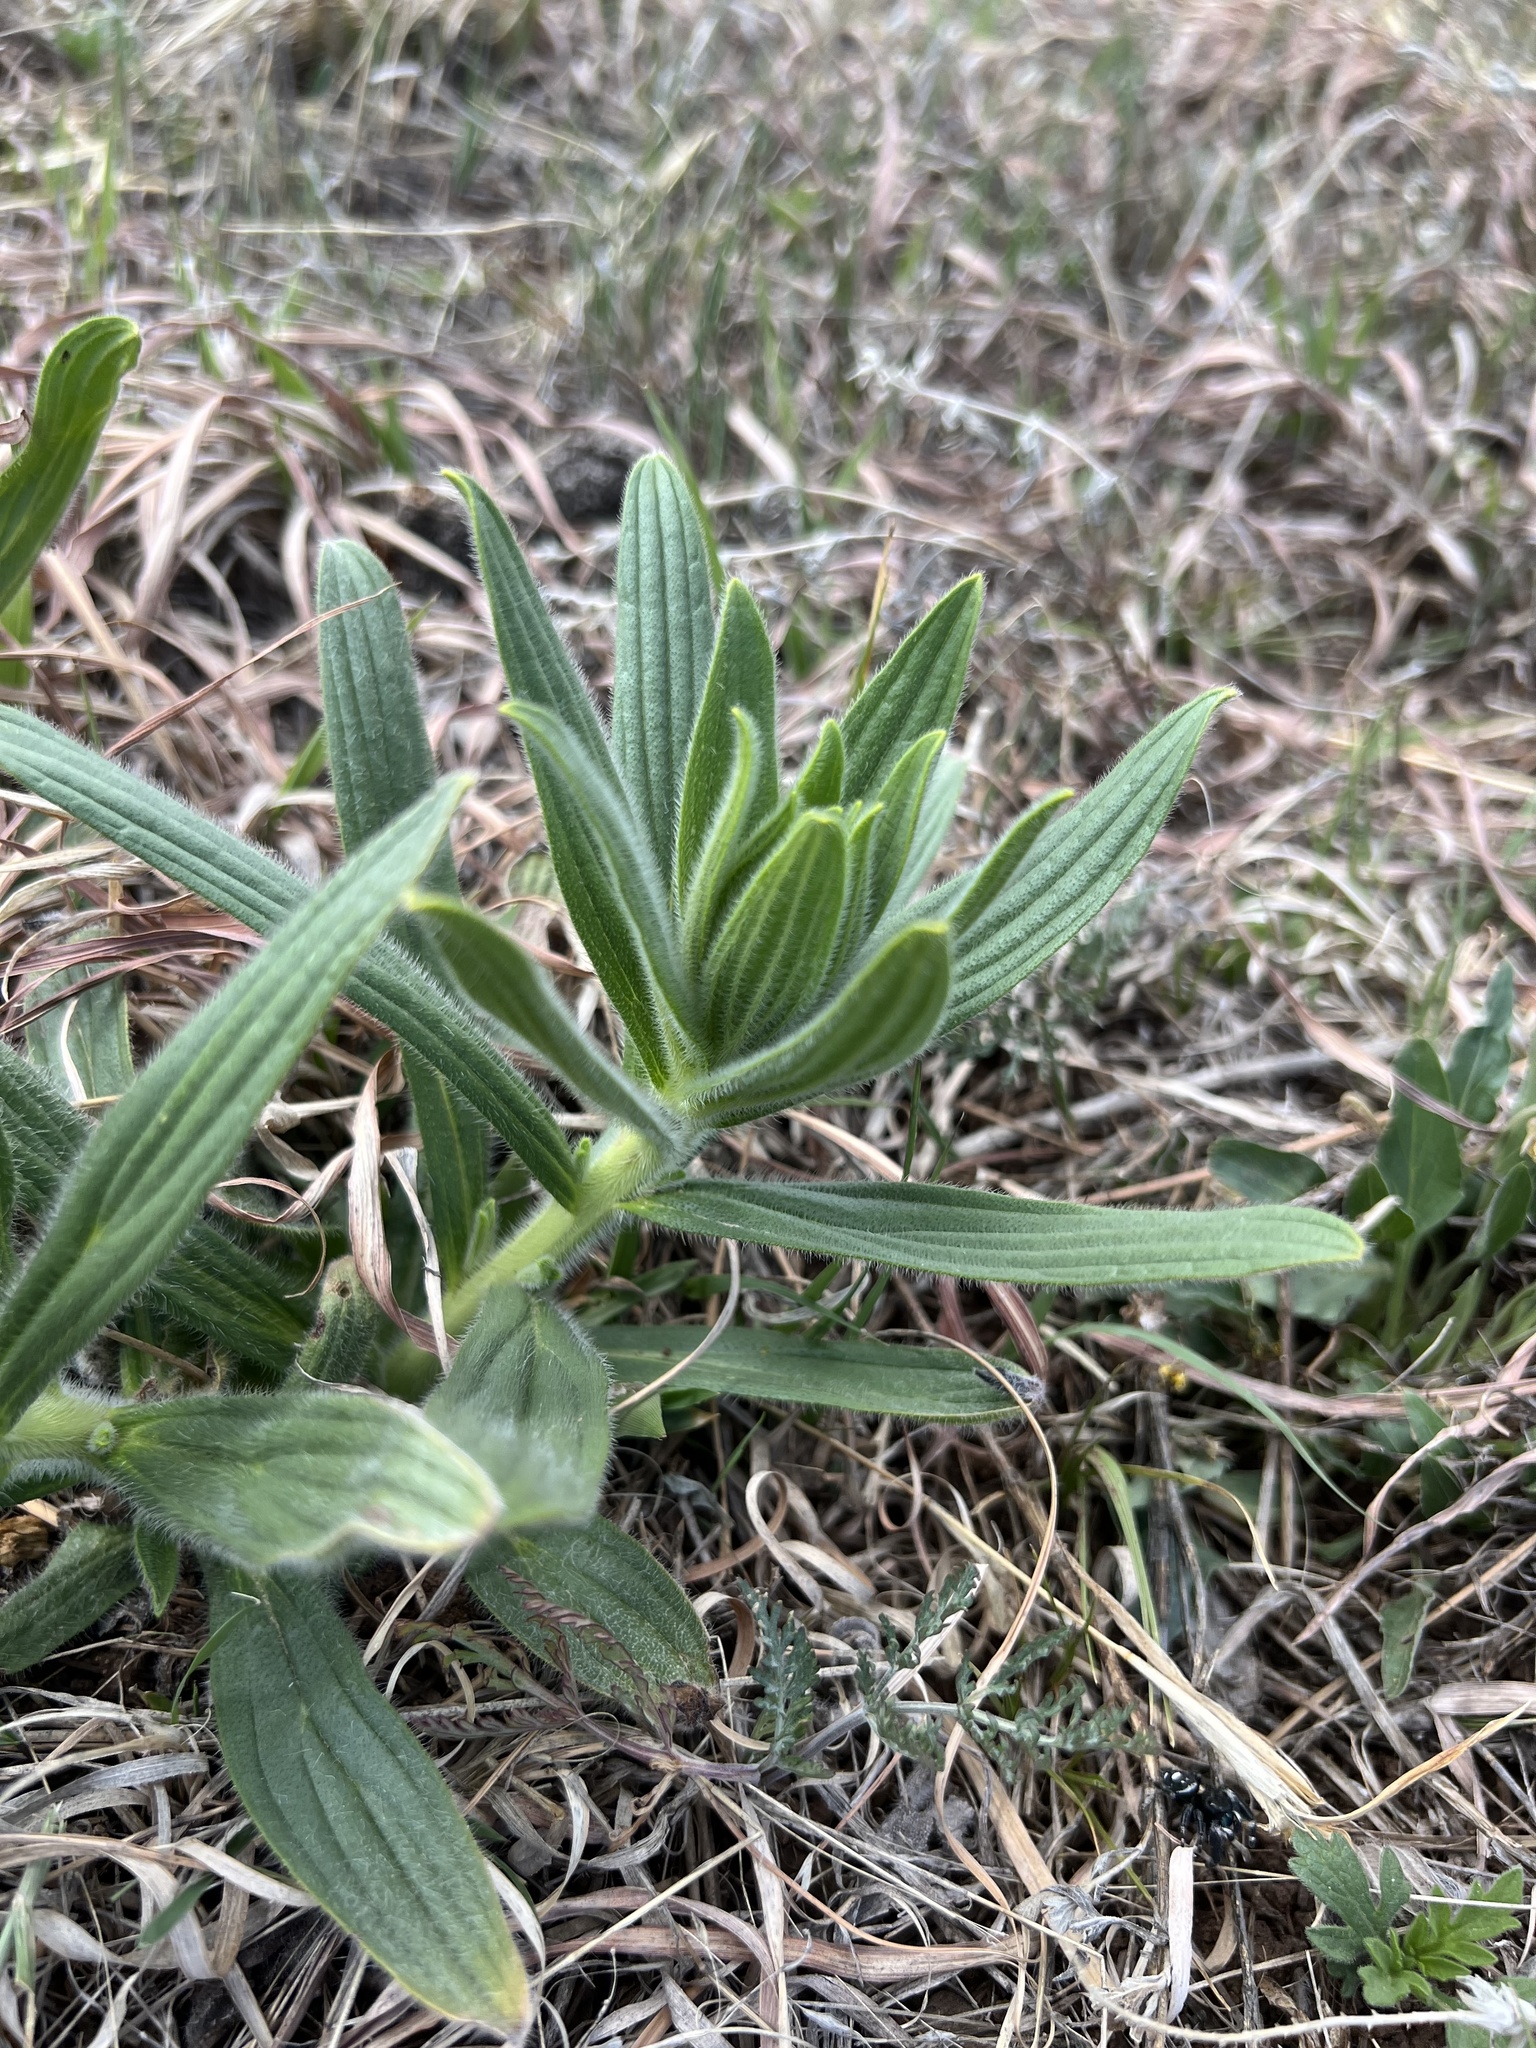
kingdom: Plantae
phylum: Tracheophyta
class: Magnoliopsida
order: Boraginales
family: Boraginaceae
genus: Lithospermum
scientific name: Lithospermum occidentale
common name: Western false gromwell
